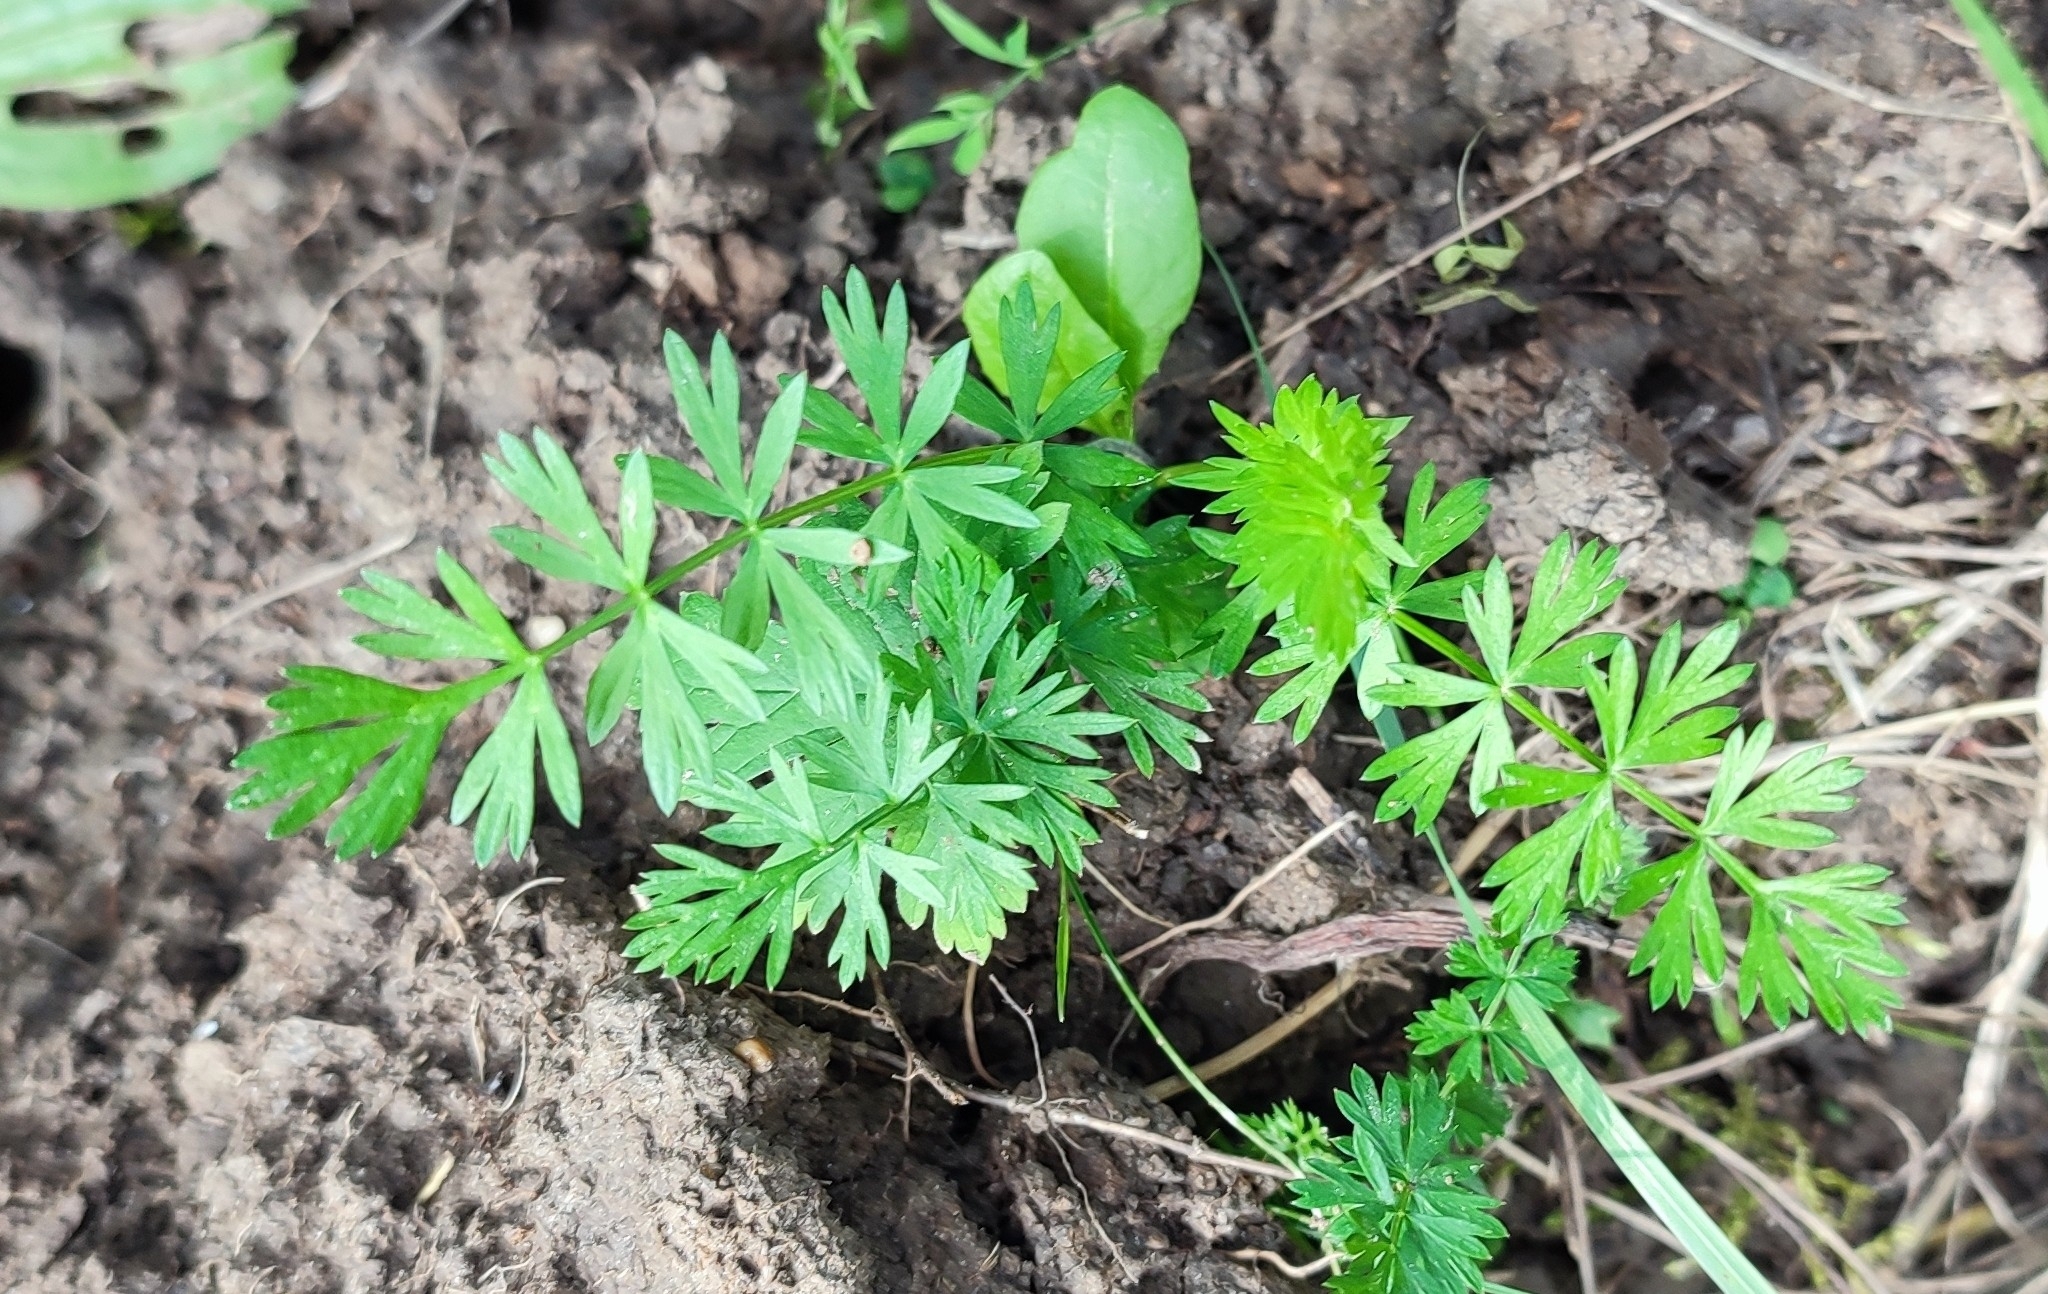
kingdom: Plantae
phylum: Tracheophyta
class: Magnoliopsida
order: Apiales
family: Apiaceae
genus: Carum
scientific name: Carum carvi
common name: Caraway
